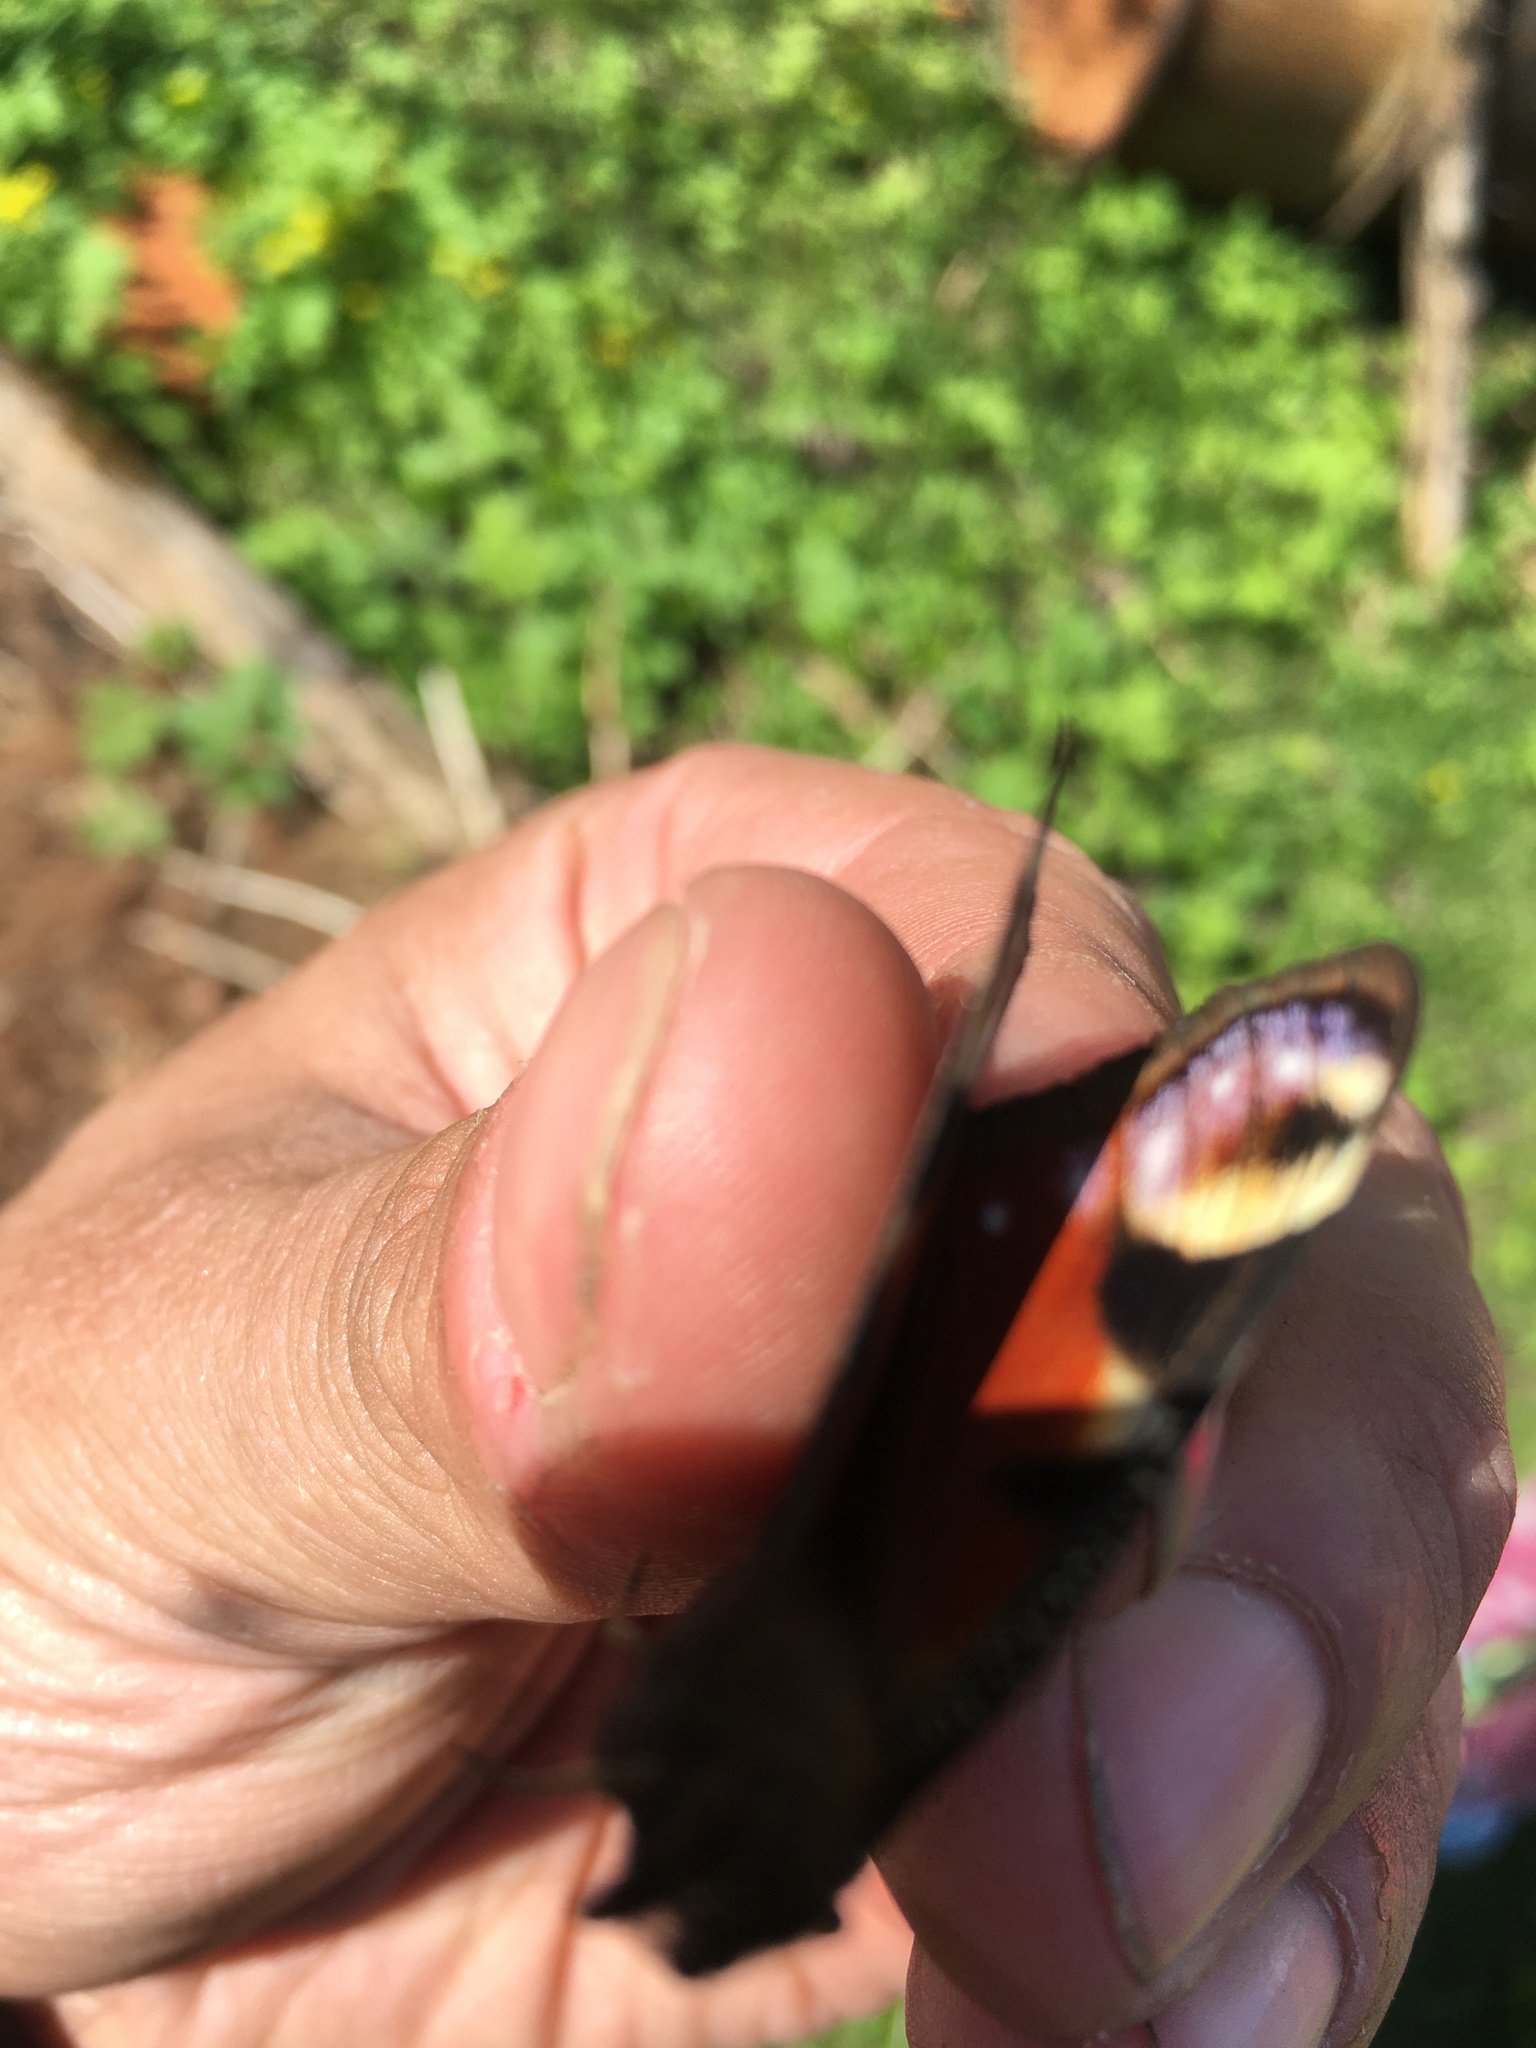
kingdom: Animalia
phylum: Arthropoda
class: Insecta
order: Lepidoptera
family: Nymphalidae
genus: Aglais
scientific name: Aglais io
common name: Peacock
